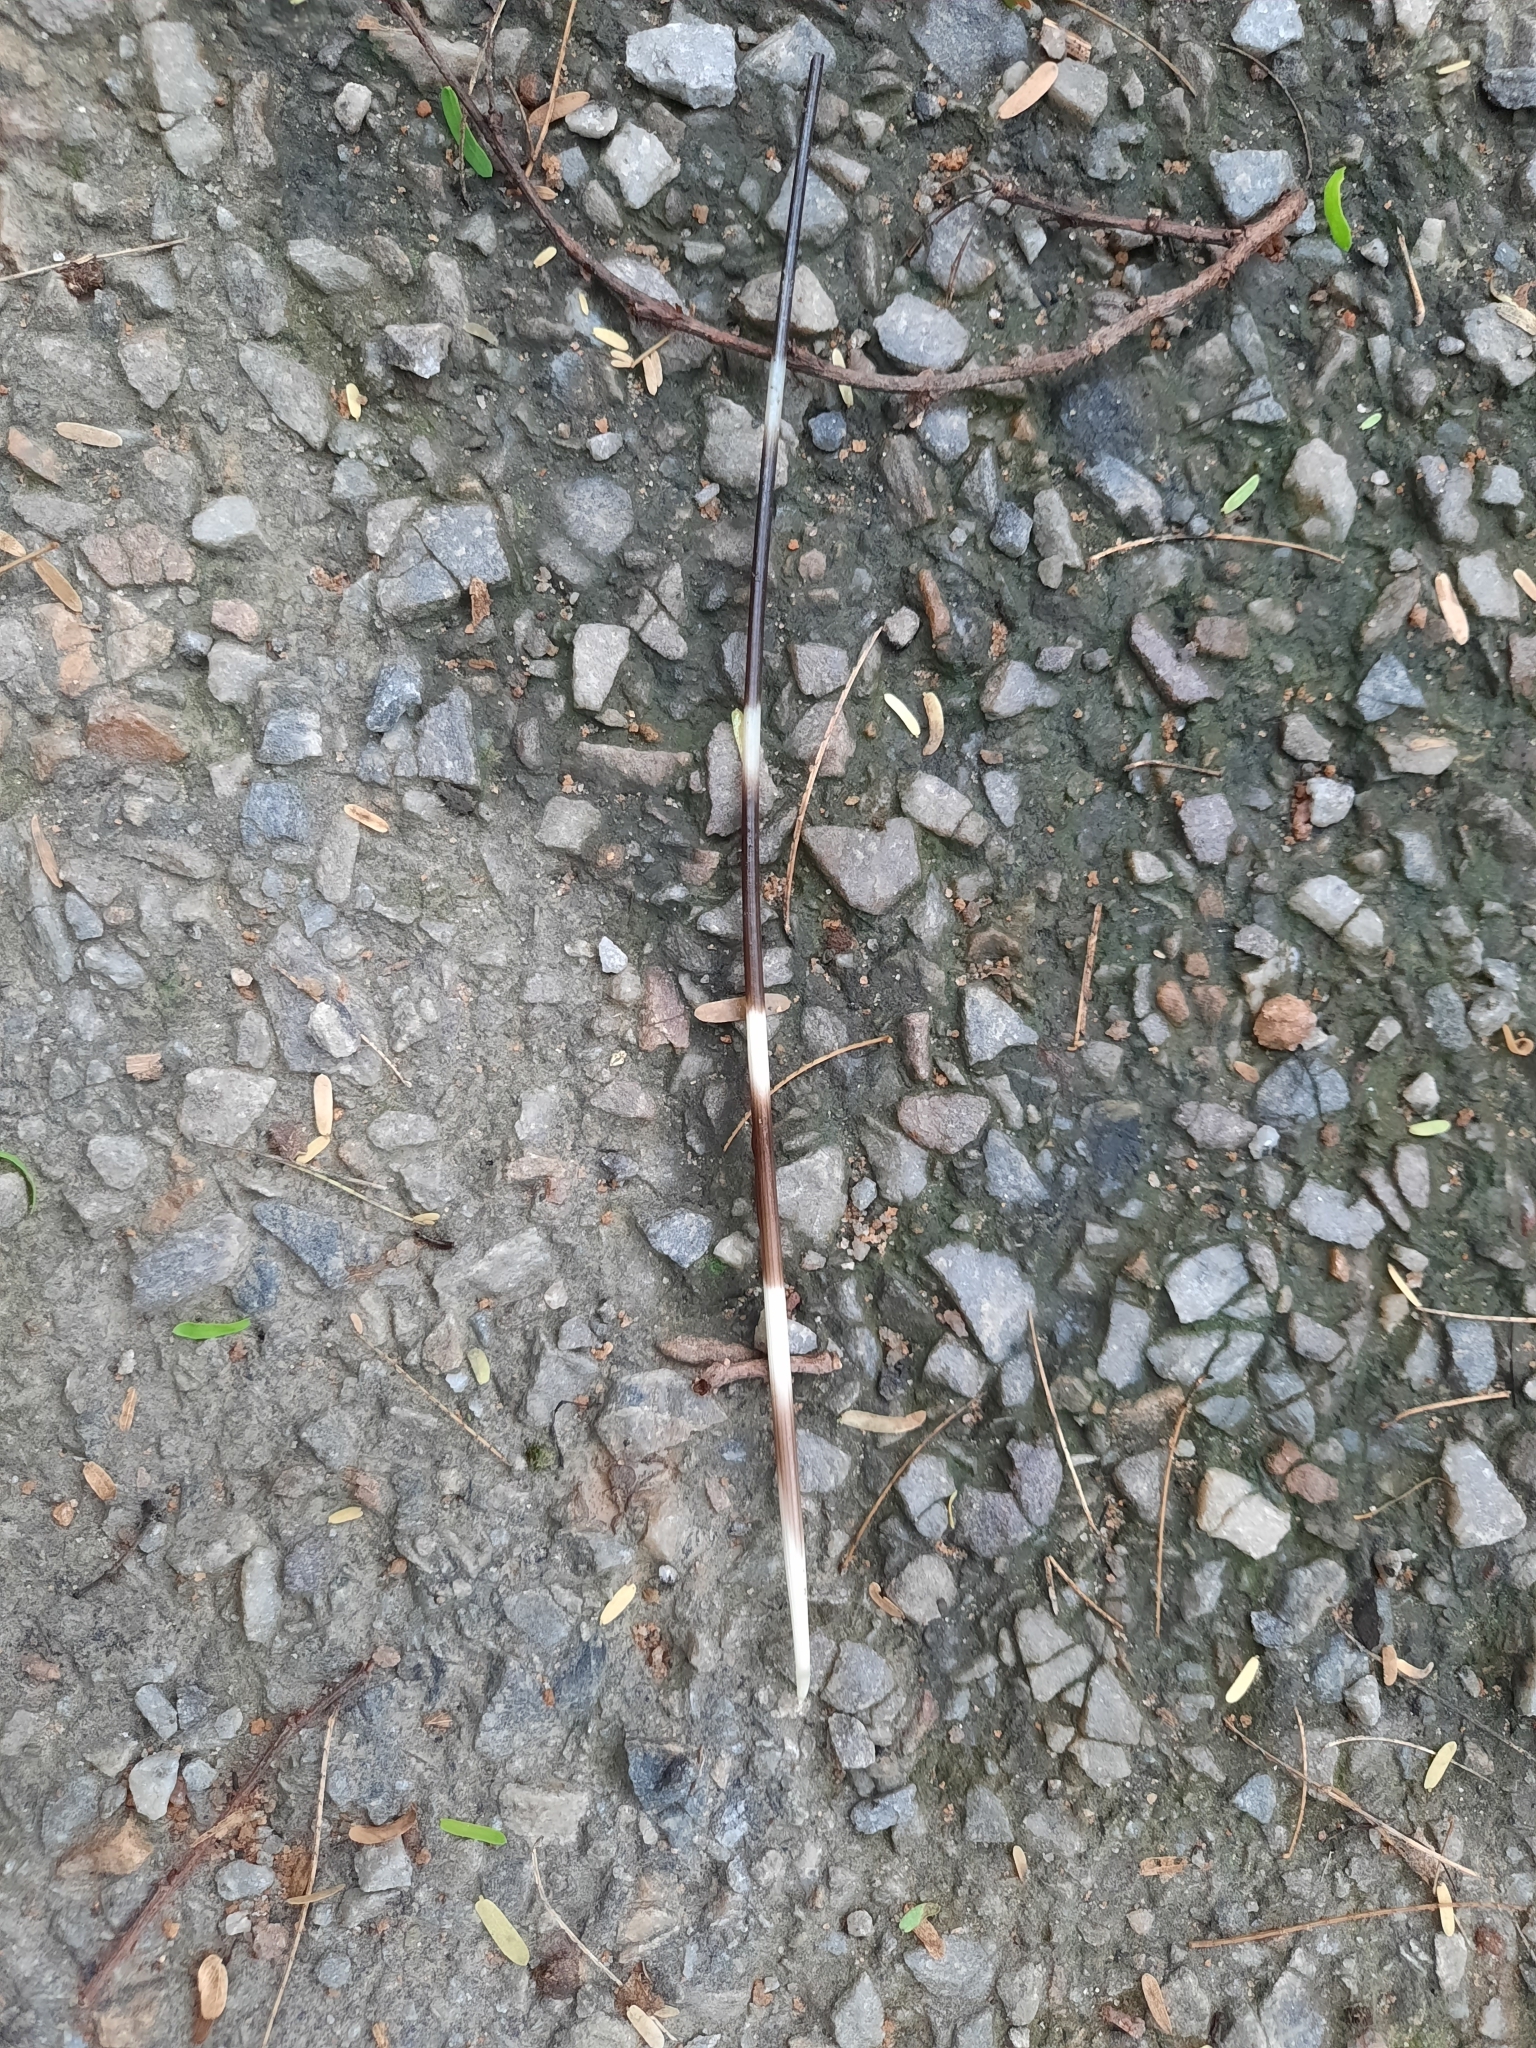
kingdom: Animalia
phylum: Chordata
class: Mammalia
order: Rodentia
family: Hystricidae
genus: Hystrix
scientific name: Hystrix indica
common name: Indian crested porcupine
